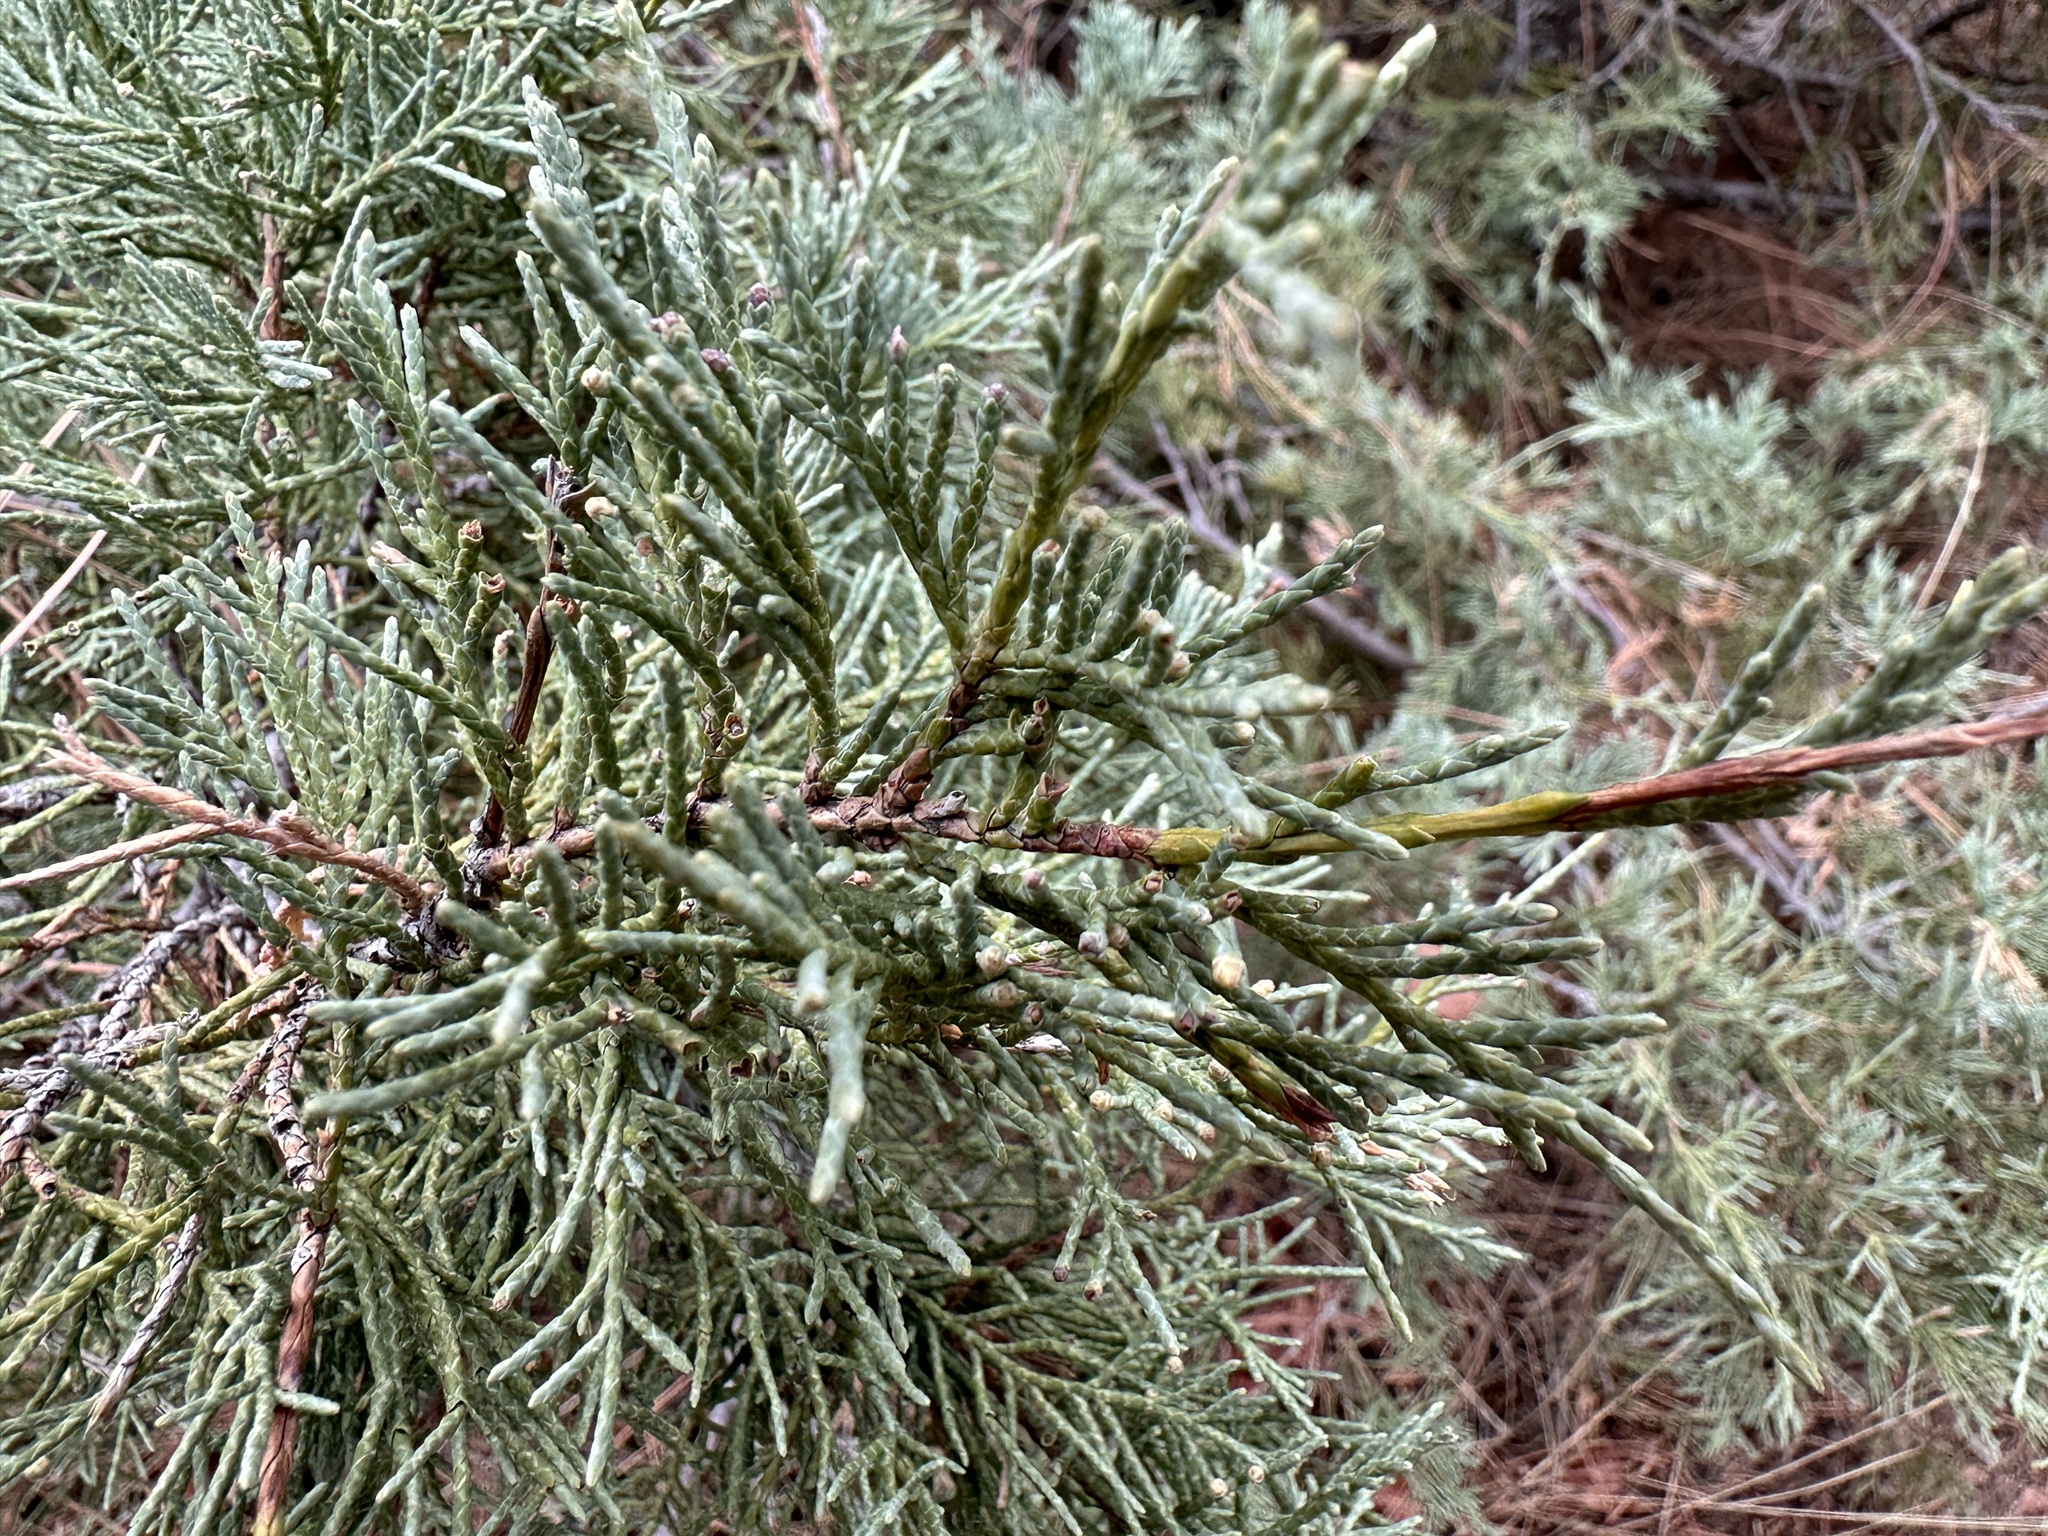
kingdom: Plantae
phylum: Tracheophyta
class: Pinopsida
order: Pinales
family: Cupressaceae
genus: Juniperus
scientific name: Juniperus scopulorum
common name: Rocky mountain juniper
